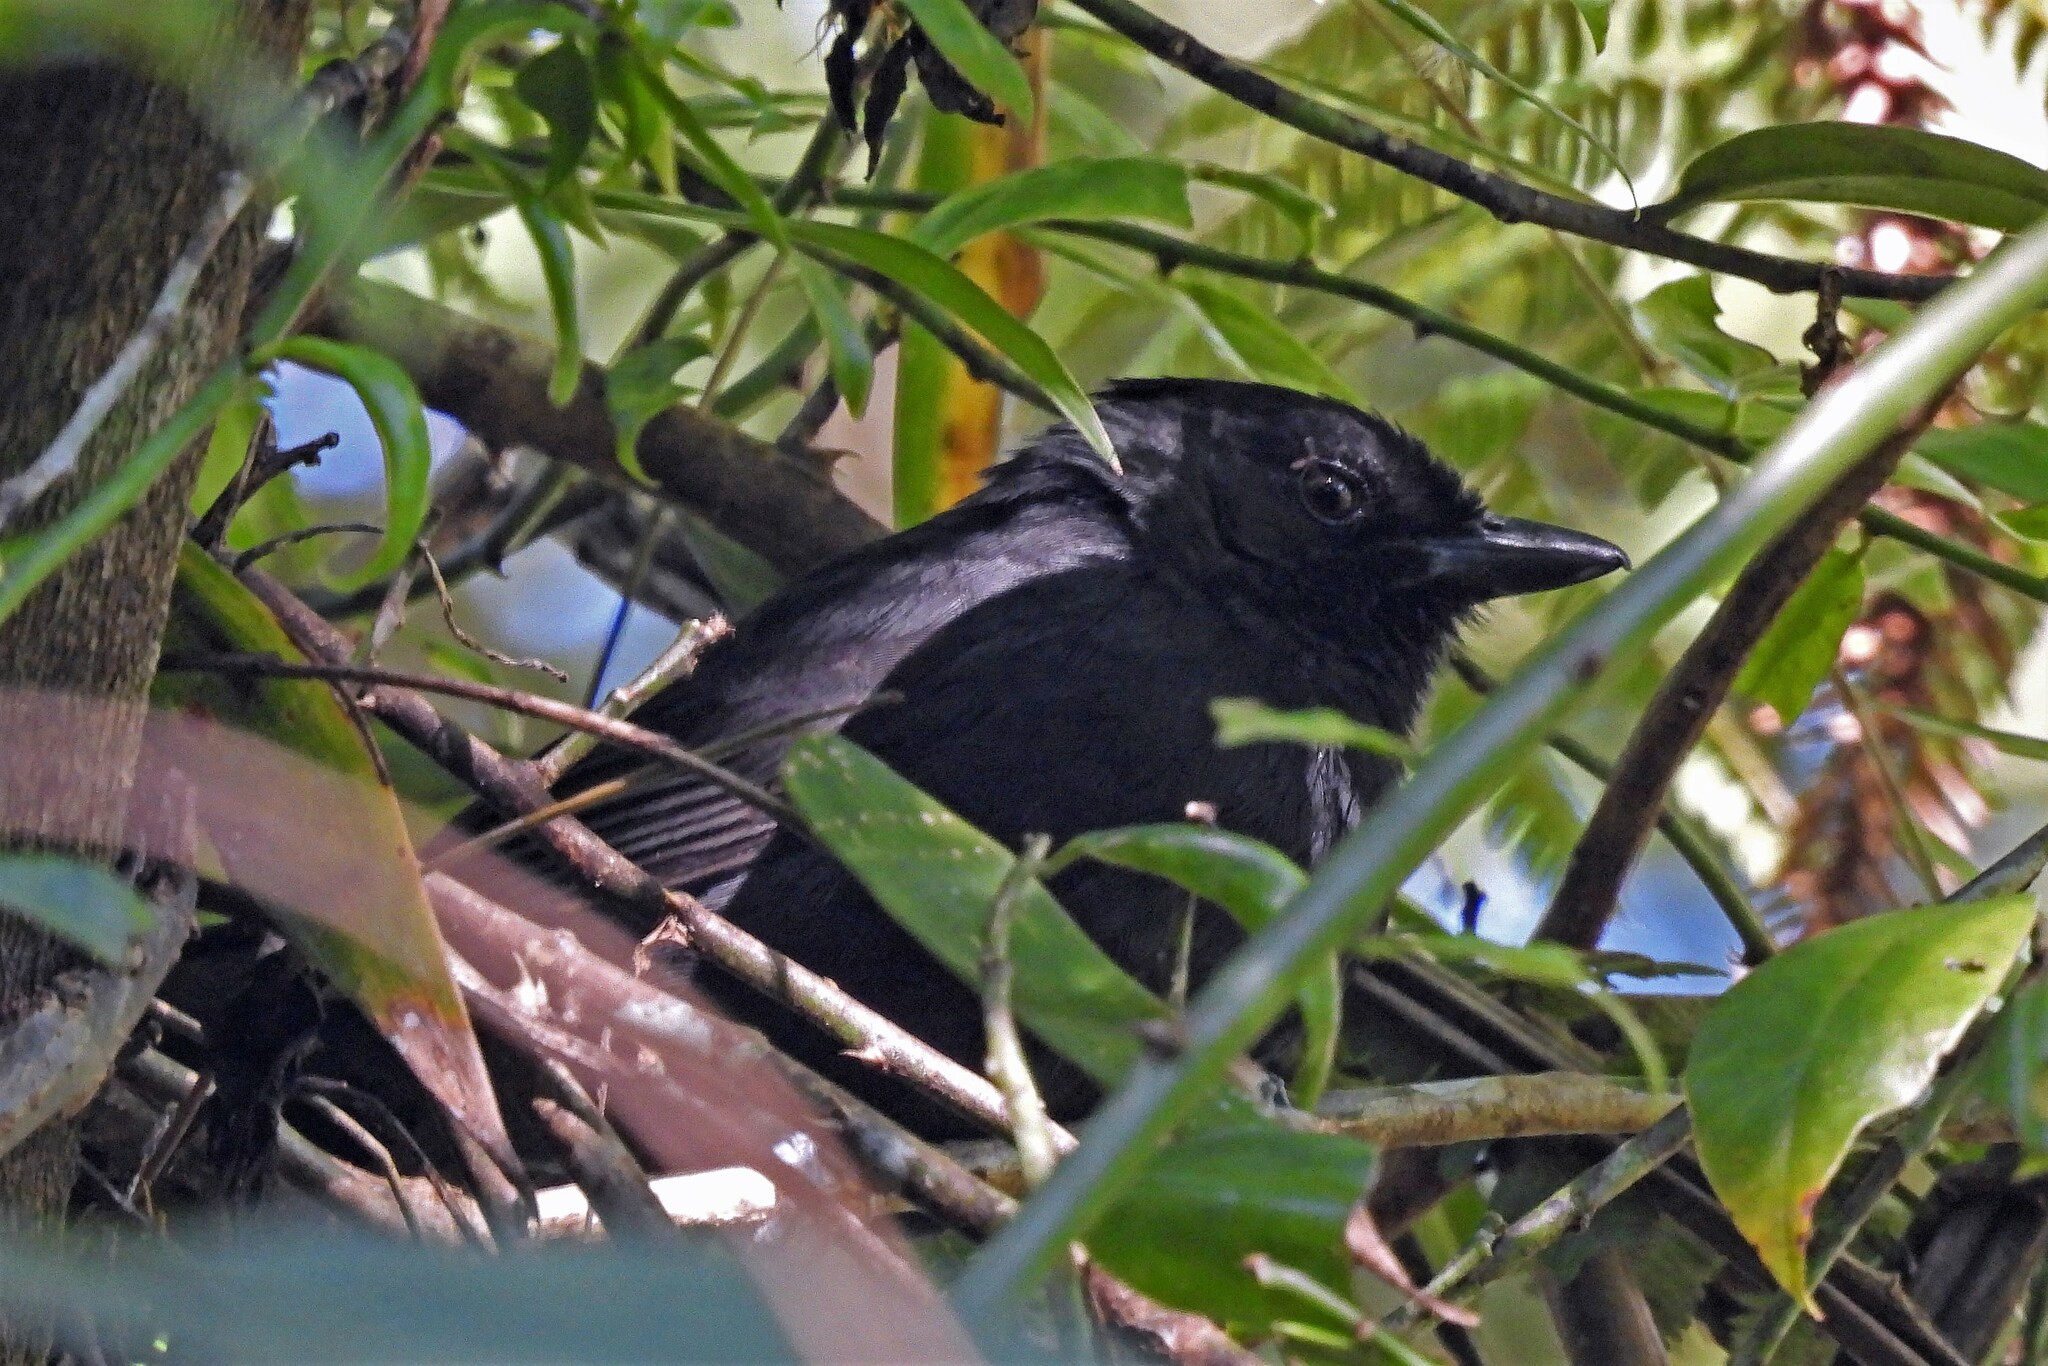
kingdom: Animalia
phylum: Chordata
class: Aves
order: Passeriformes
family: Thamnophilidae
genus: Mackenziaena
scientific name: Mackenziaena severa
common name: Tufted antshrike
